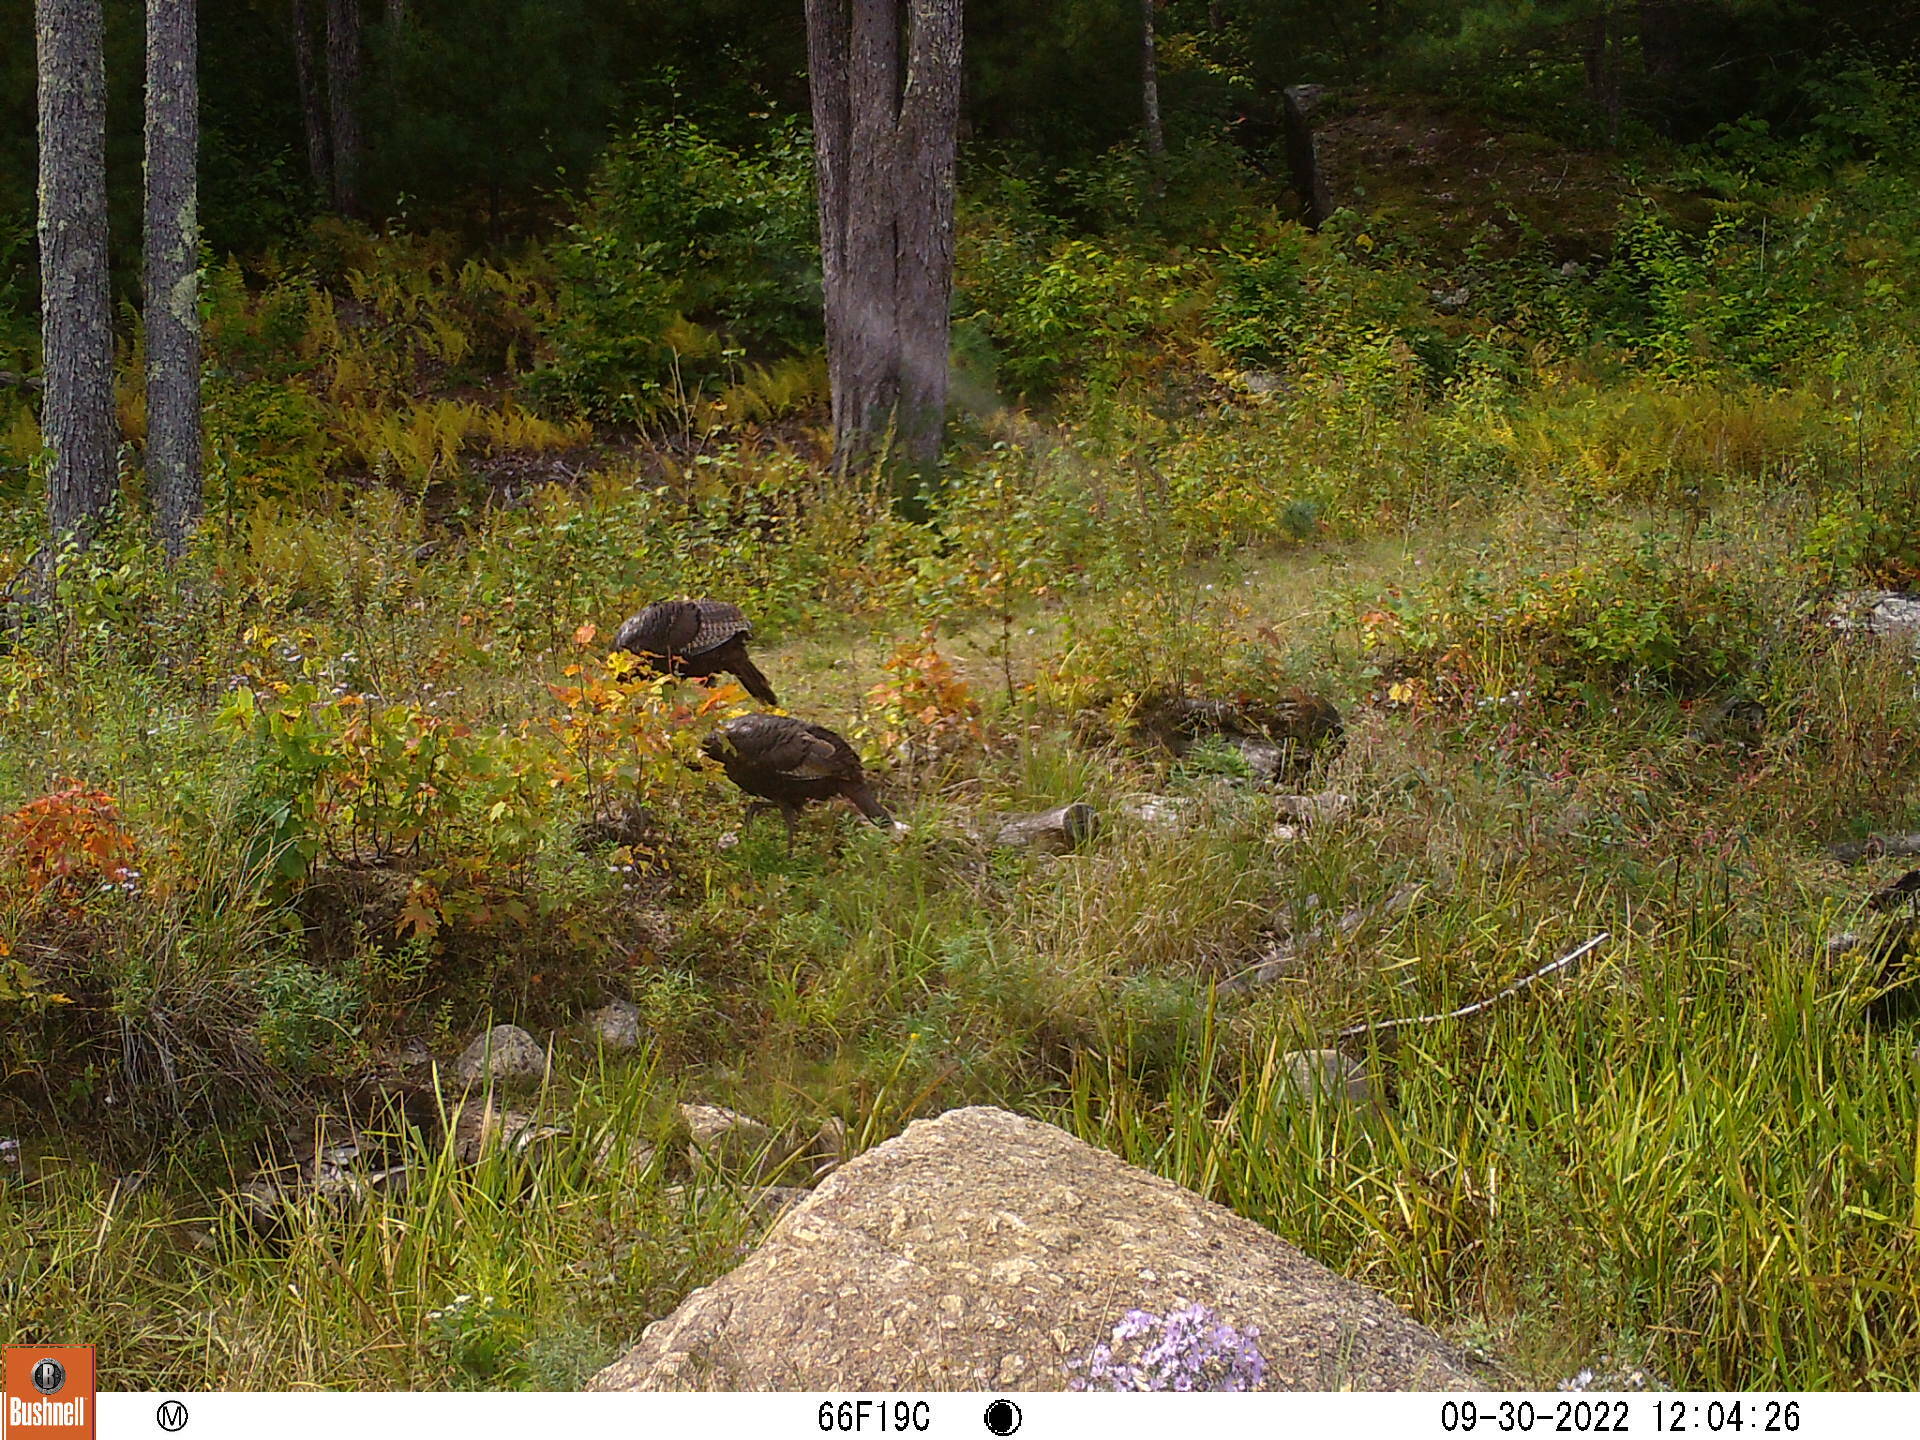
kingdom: Animalia
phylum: Chordata
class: Aves
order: Galliformes
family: Phasianidae
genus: Meleagris
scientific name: Meleagris gallopavo
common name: Wild turkey
